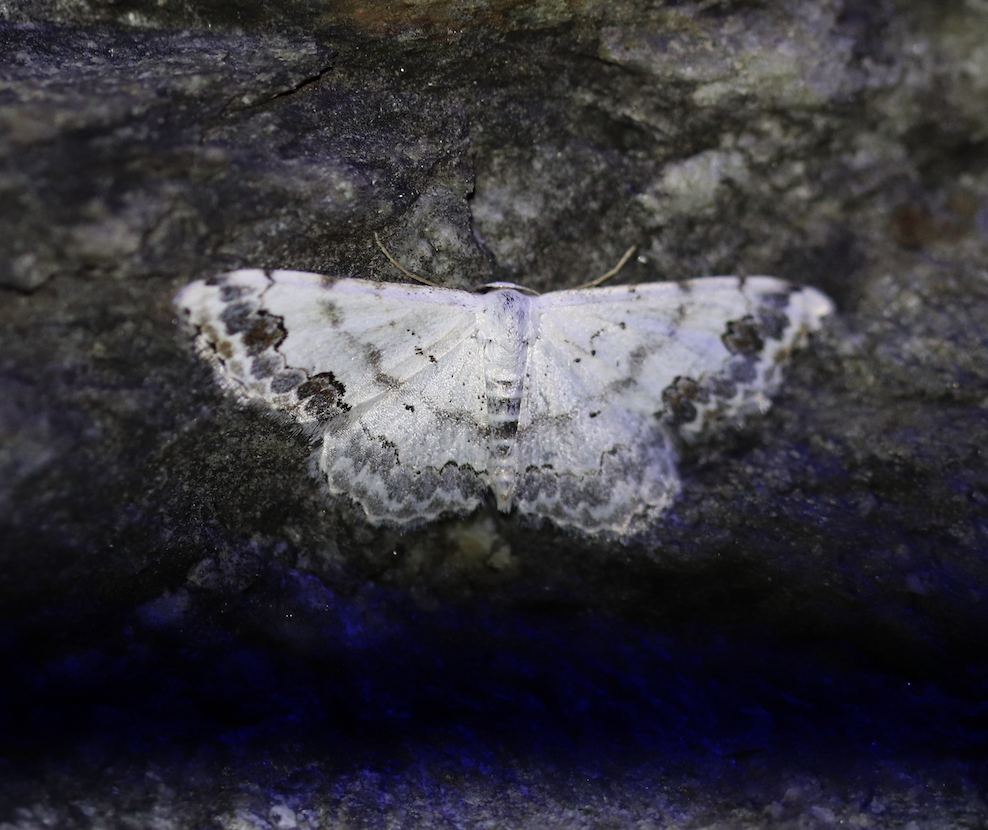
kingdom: Animalia
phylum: Arthropoda
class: Insecta
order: Lepidoptera
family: Geometridae
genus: Scopula
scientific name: Scopula decorata
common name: Middle lace border
